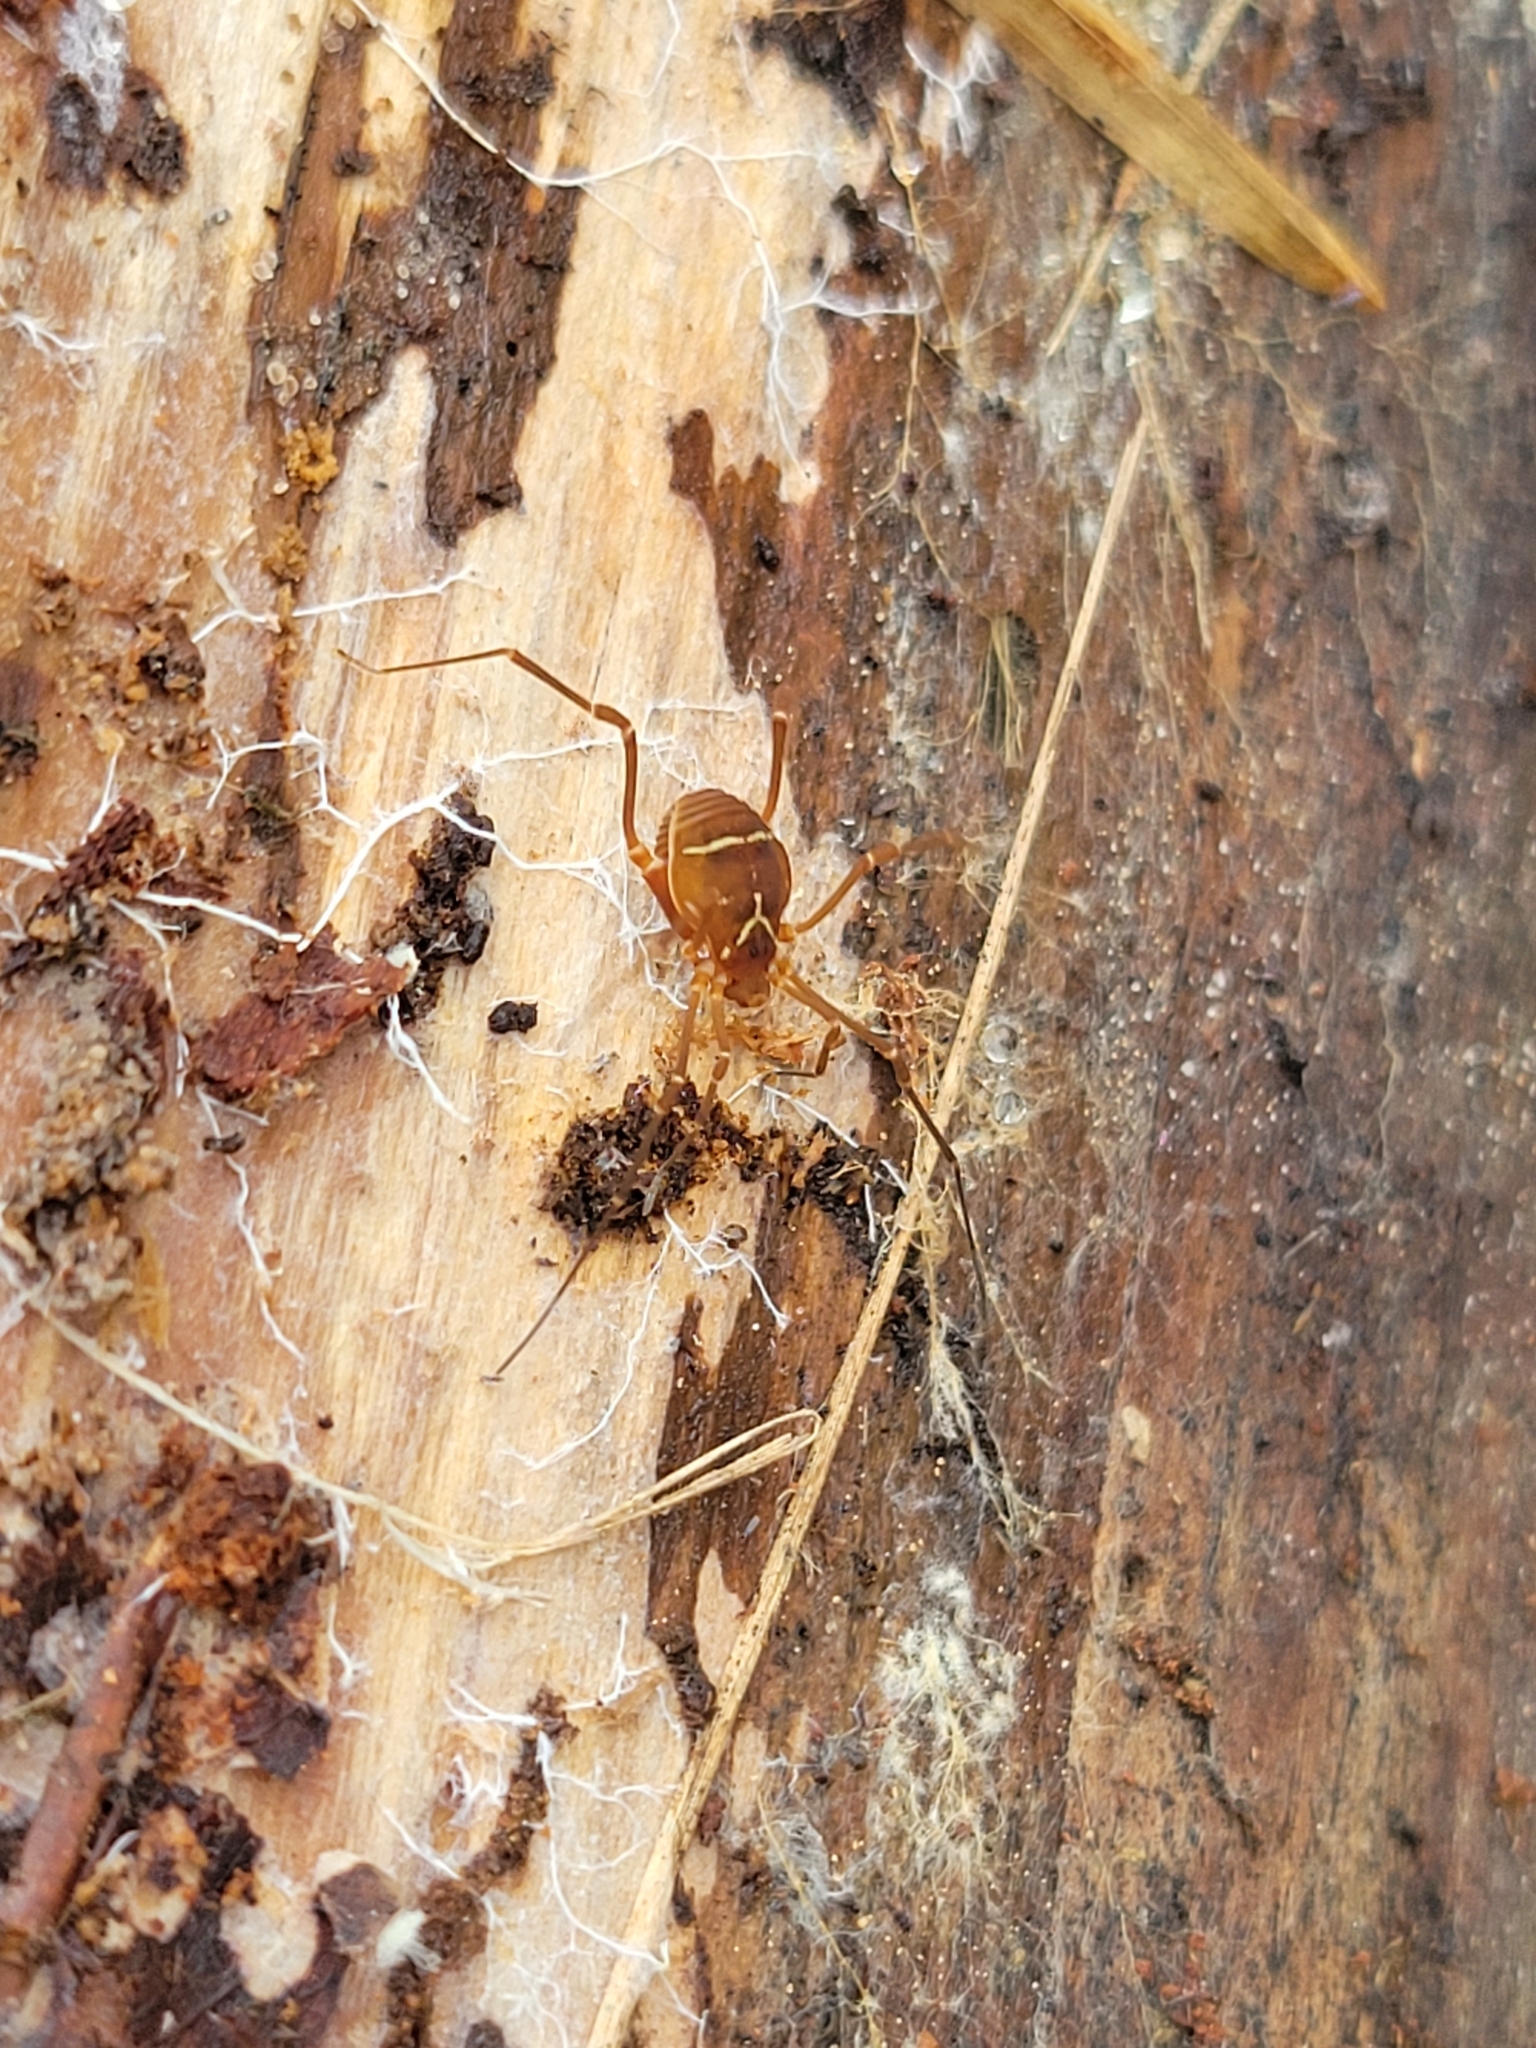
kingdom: Animalia
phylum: Arthropoda
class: Arachnida
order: Opiliones
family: Cosmetidae
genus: Libitioides
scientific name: Libitioides sayi
